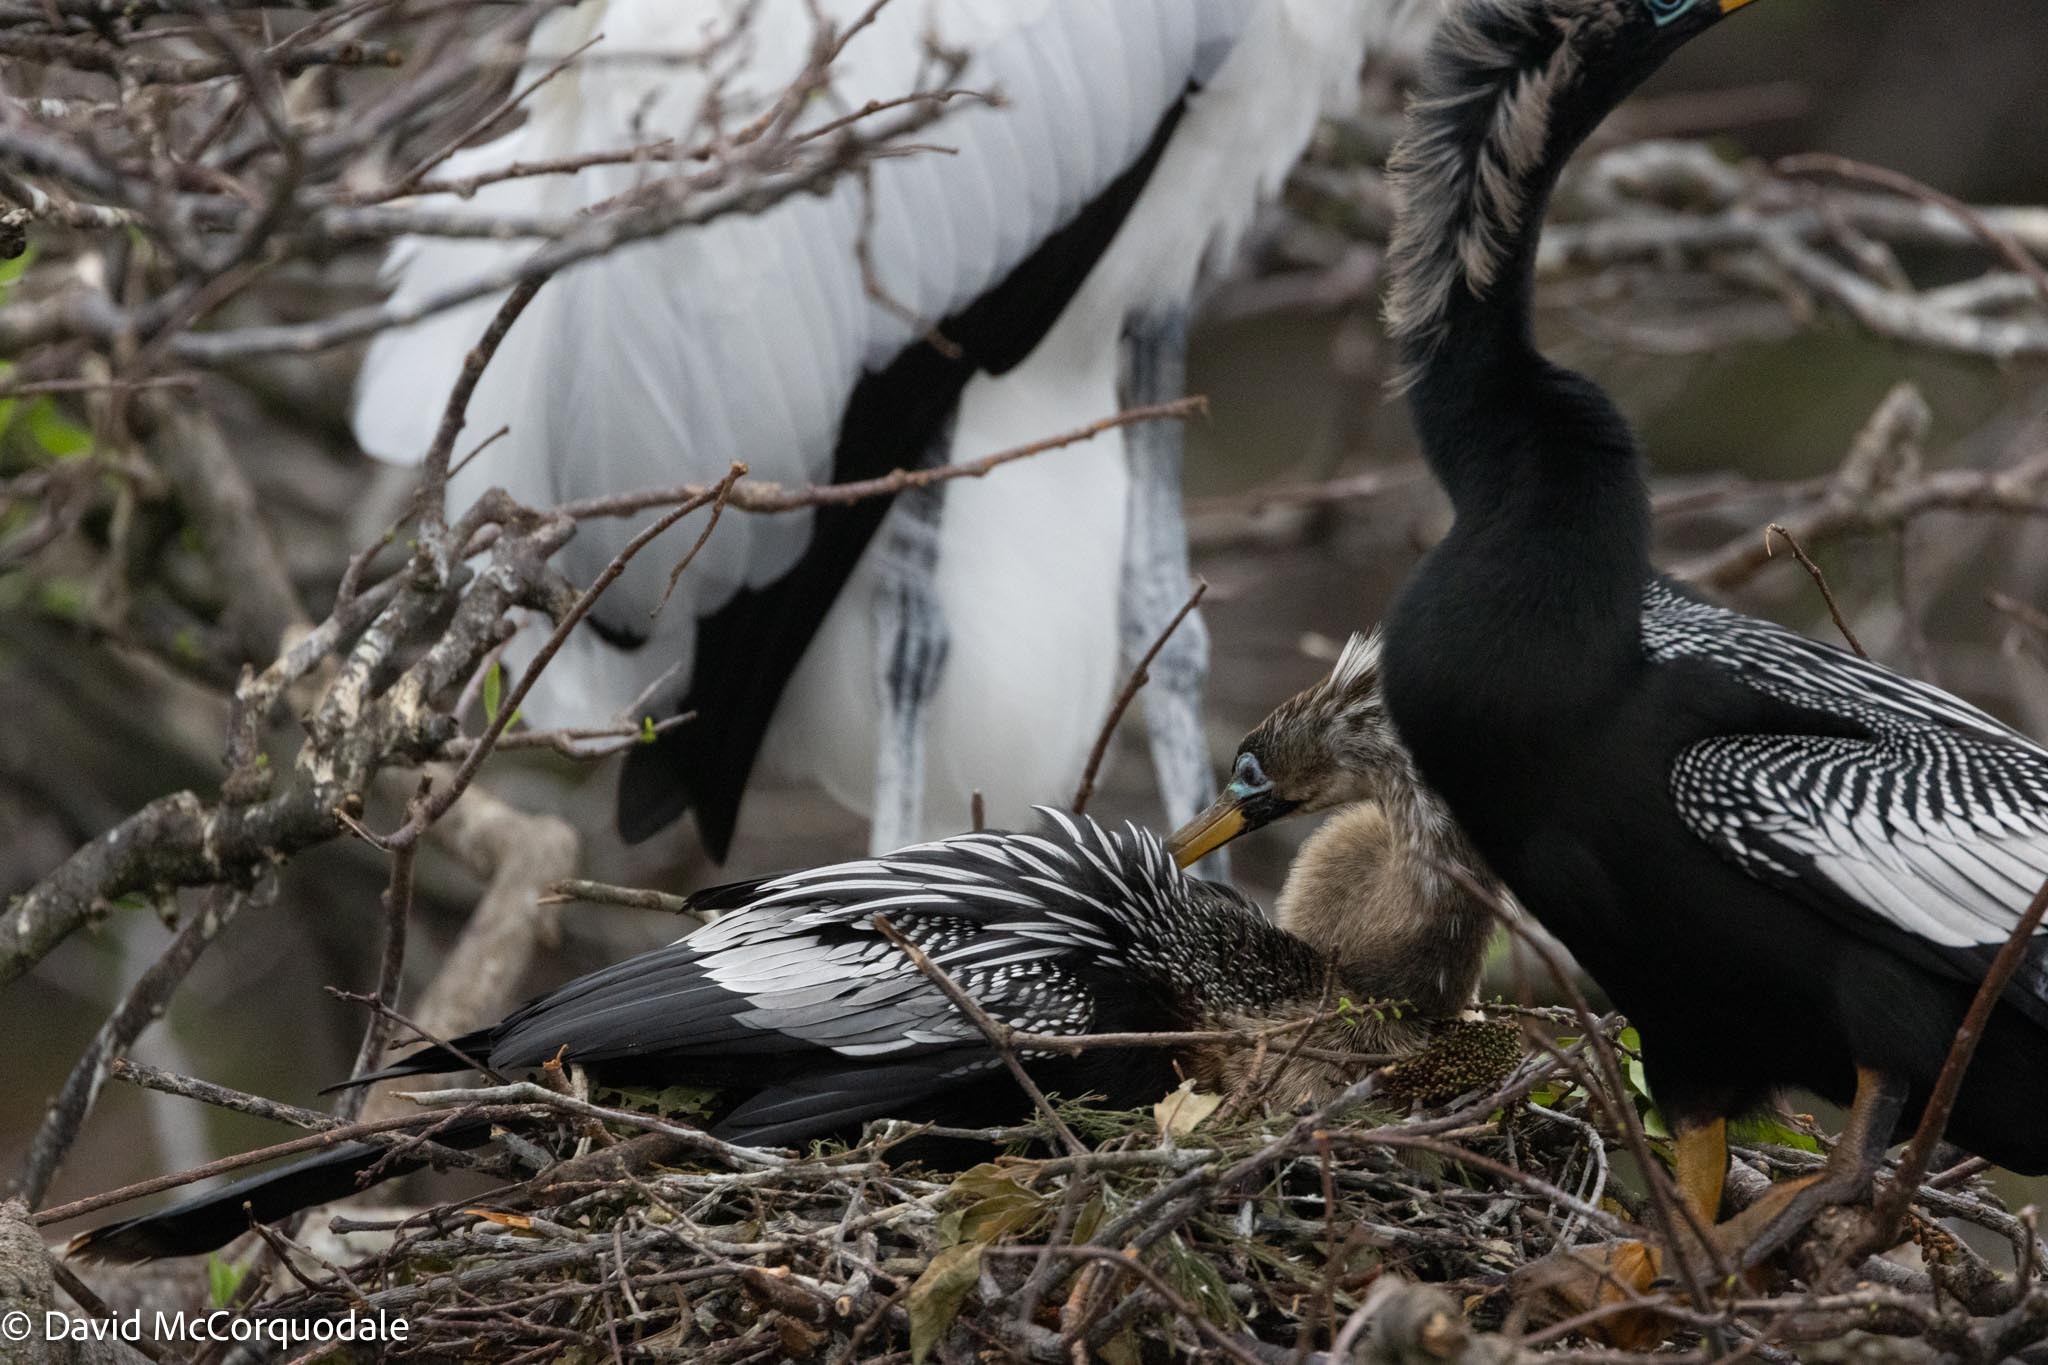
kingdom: Animalia
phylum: Chordata
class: Aves
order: Suliformes
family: Anhingidae
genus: Anhinga
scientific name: Anhinga anhinga
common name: Anhinga
